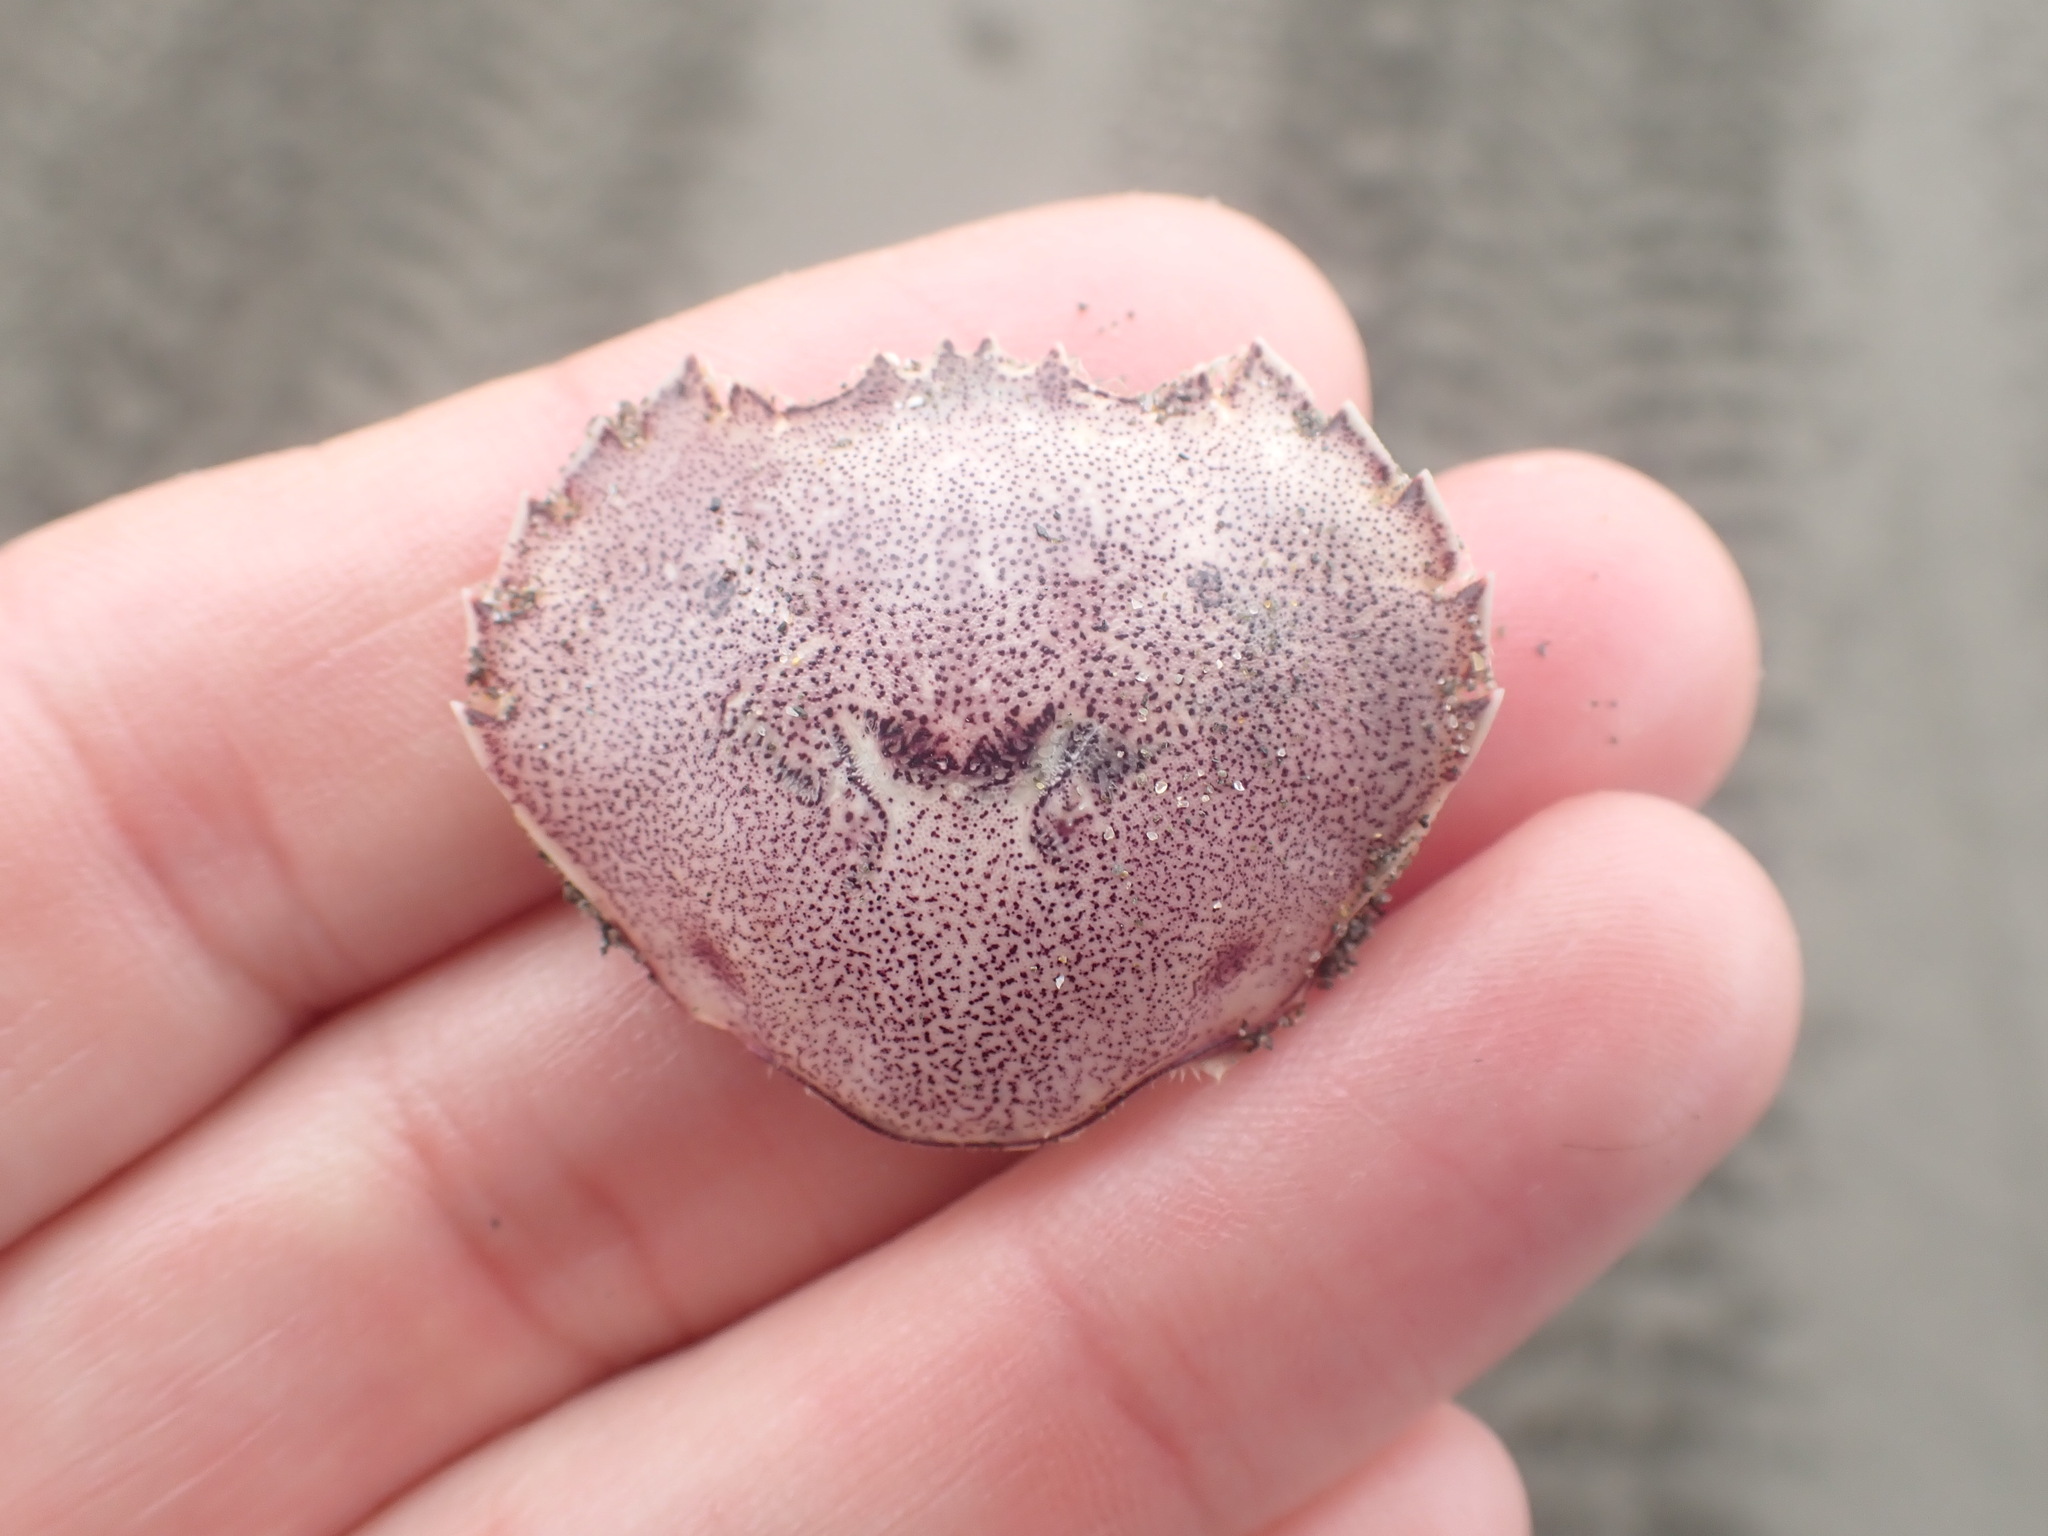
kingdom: Animalia
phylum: Arthropoda
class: Malacostraca
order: Decapoda
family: Ovalipidae
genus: Ovalipes
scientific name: Ovalipes catharus
